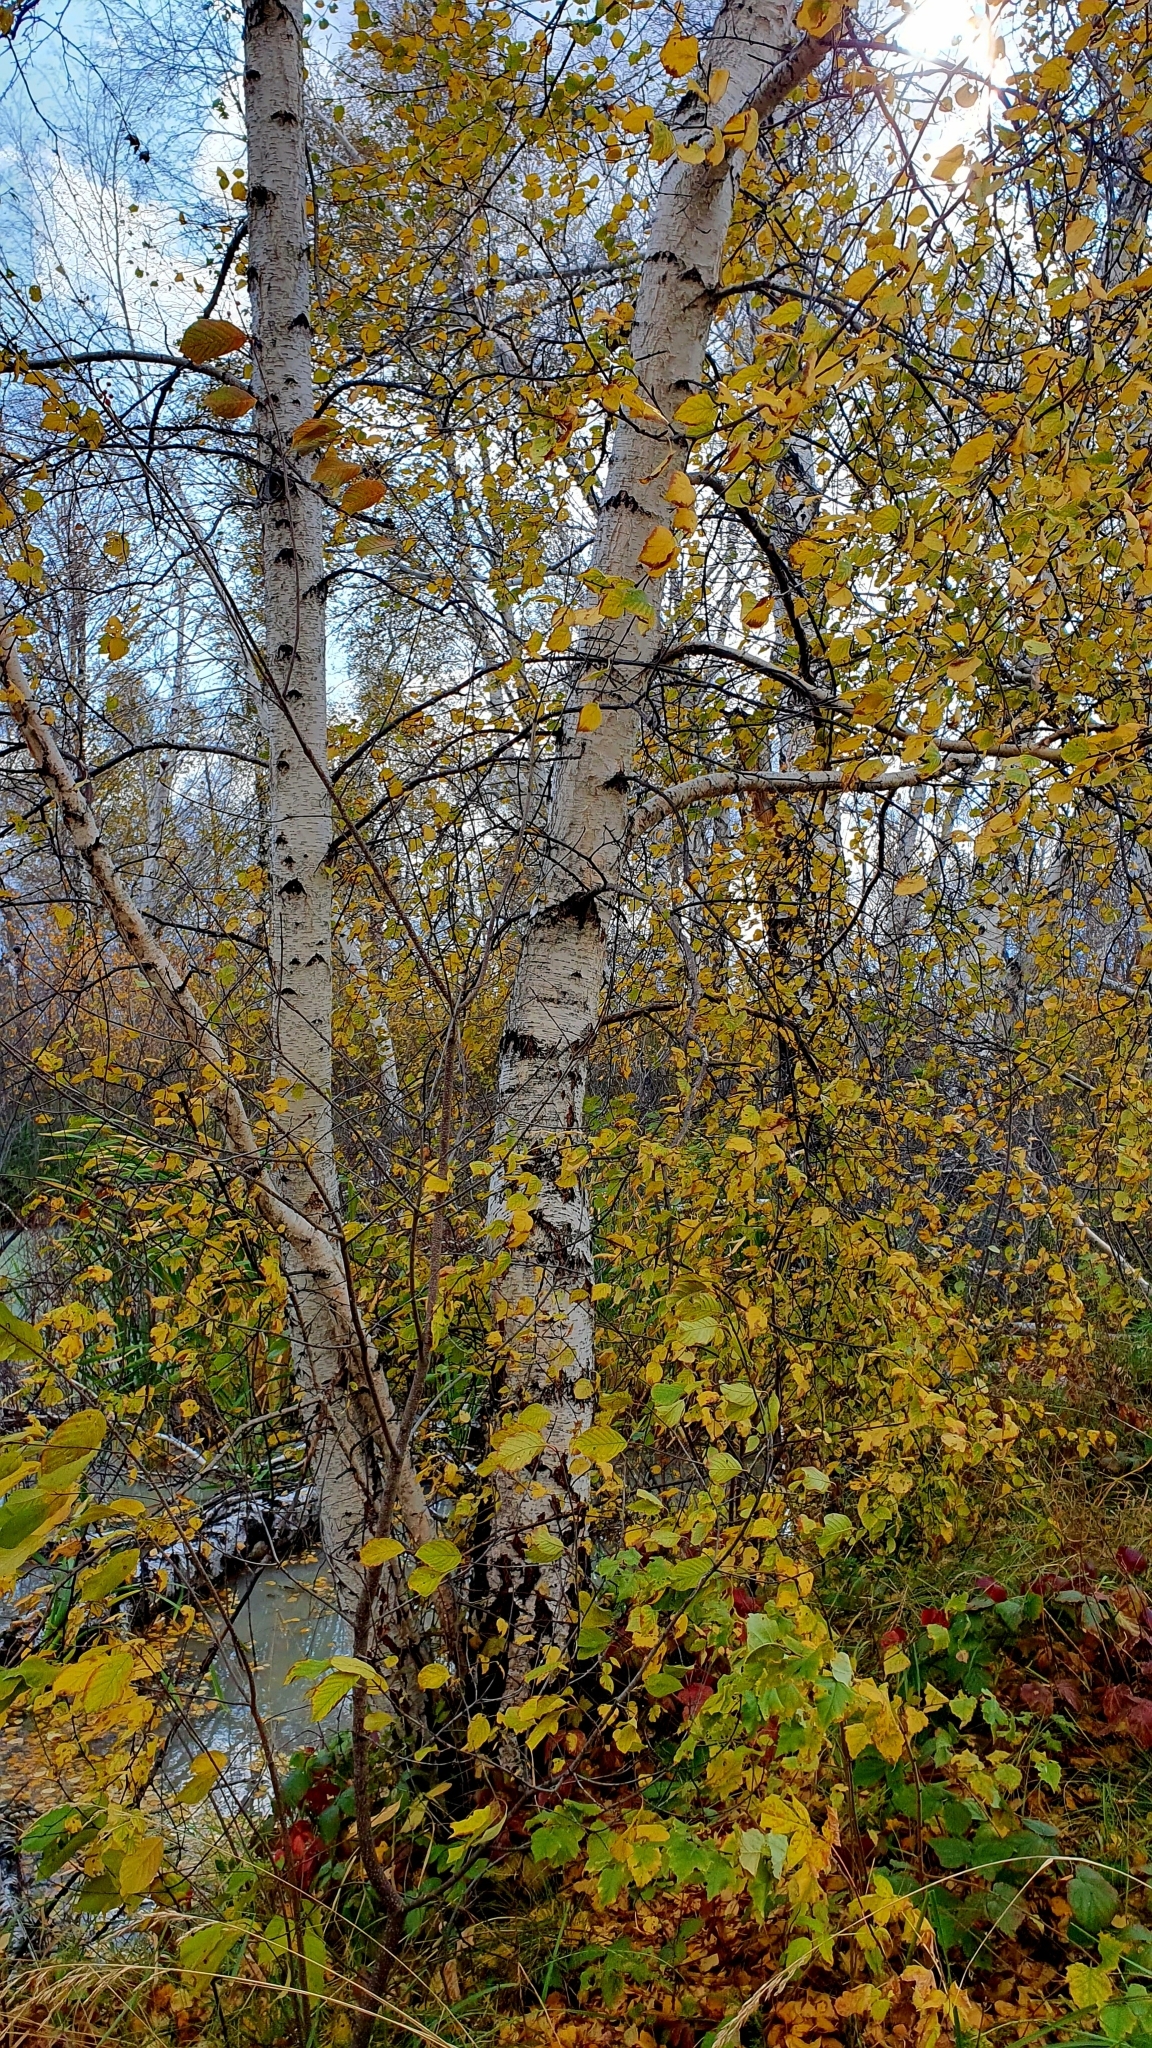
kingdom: Plantae
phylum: Tracheophyta
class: Magnoliopsida
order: Fagales
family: Betulaceae
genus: Betula
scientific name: Betula pendula
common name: Silver birch
